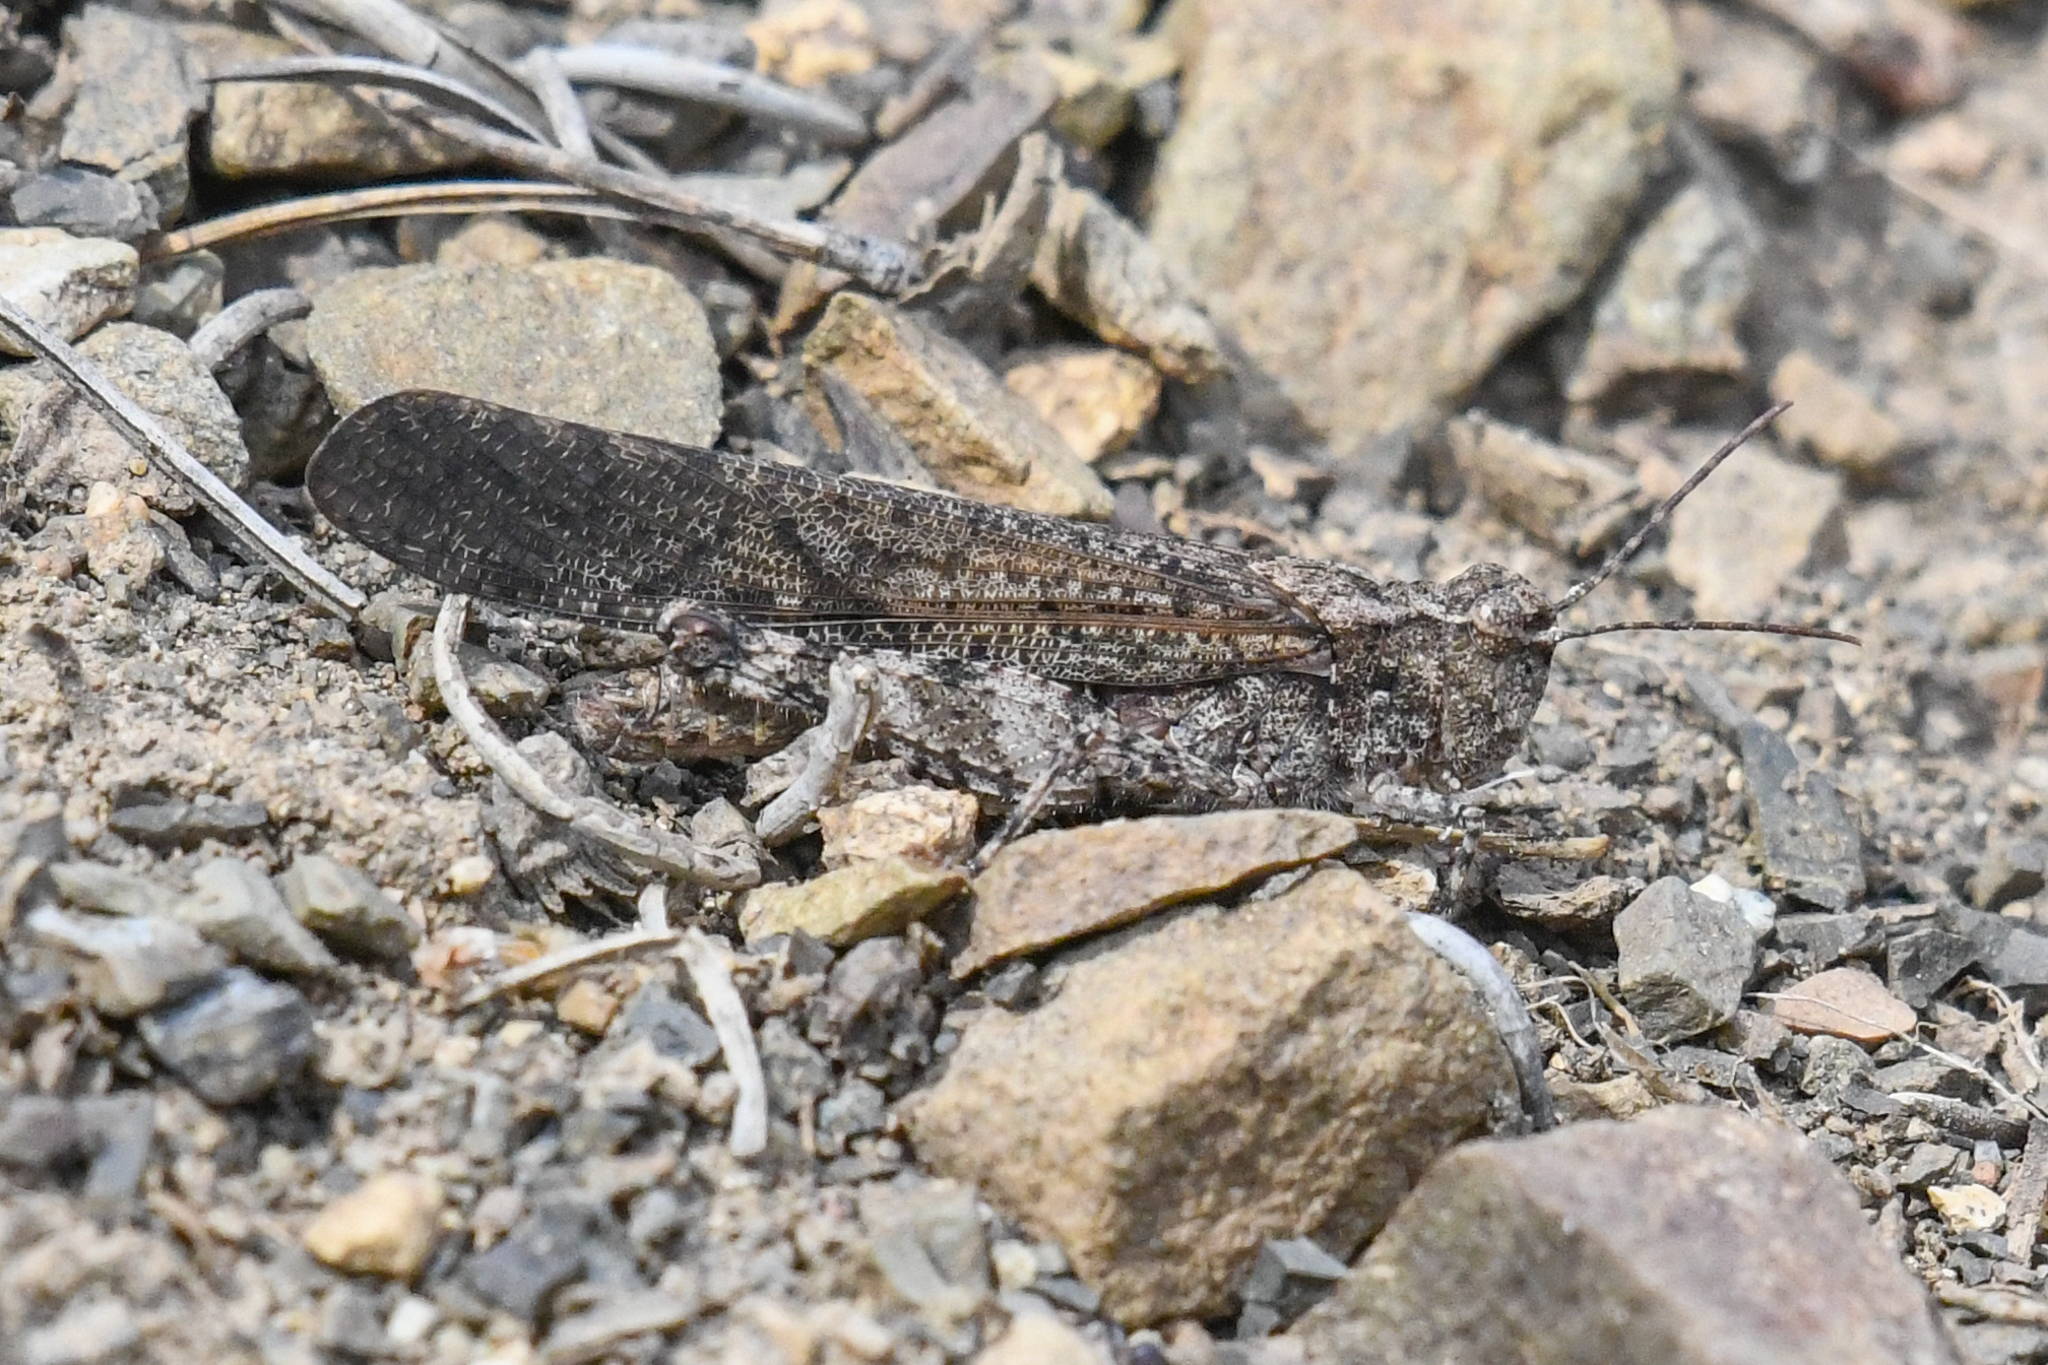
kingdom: Animalia
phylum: Arthropoda
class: Insecta
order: Orthoptera
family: Acrididae
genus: Trimerotropis
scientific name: Trimerotropis verruculata
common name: Crackling forest grasshopper
